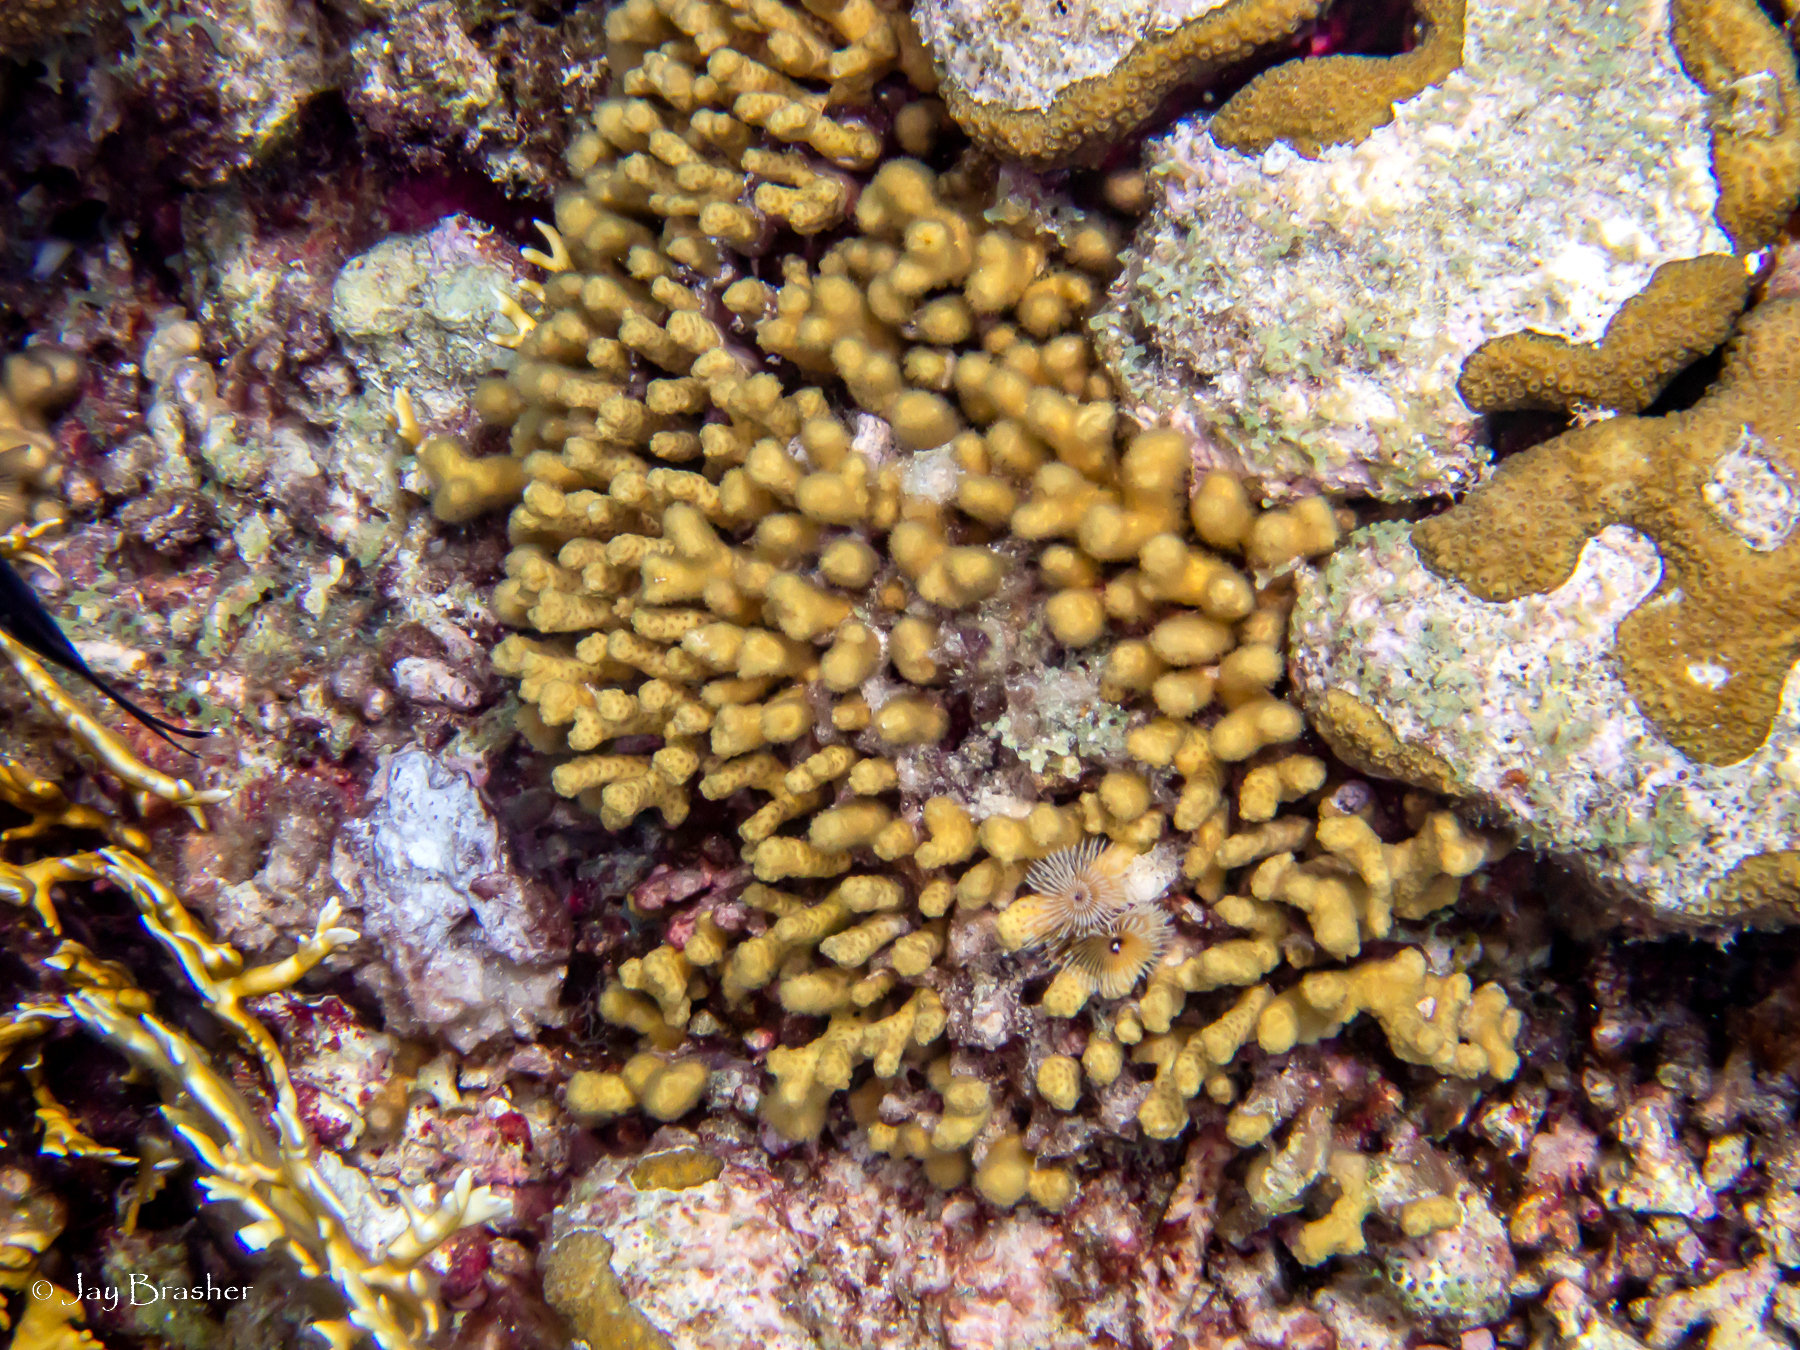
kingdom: Animalia
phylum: Cnidaria
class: Anthozoa
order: Scleractinia
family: Pocilloporidae
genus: Madracis
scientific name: Madracis auretenra
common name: Yellow pencil coral
